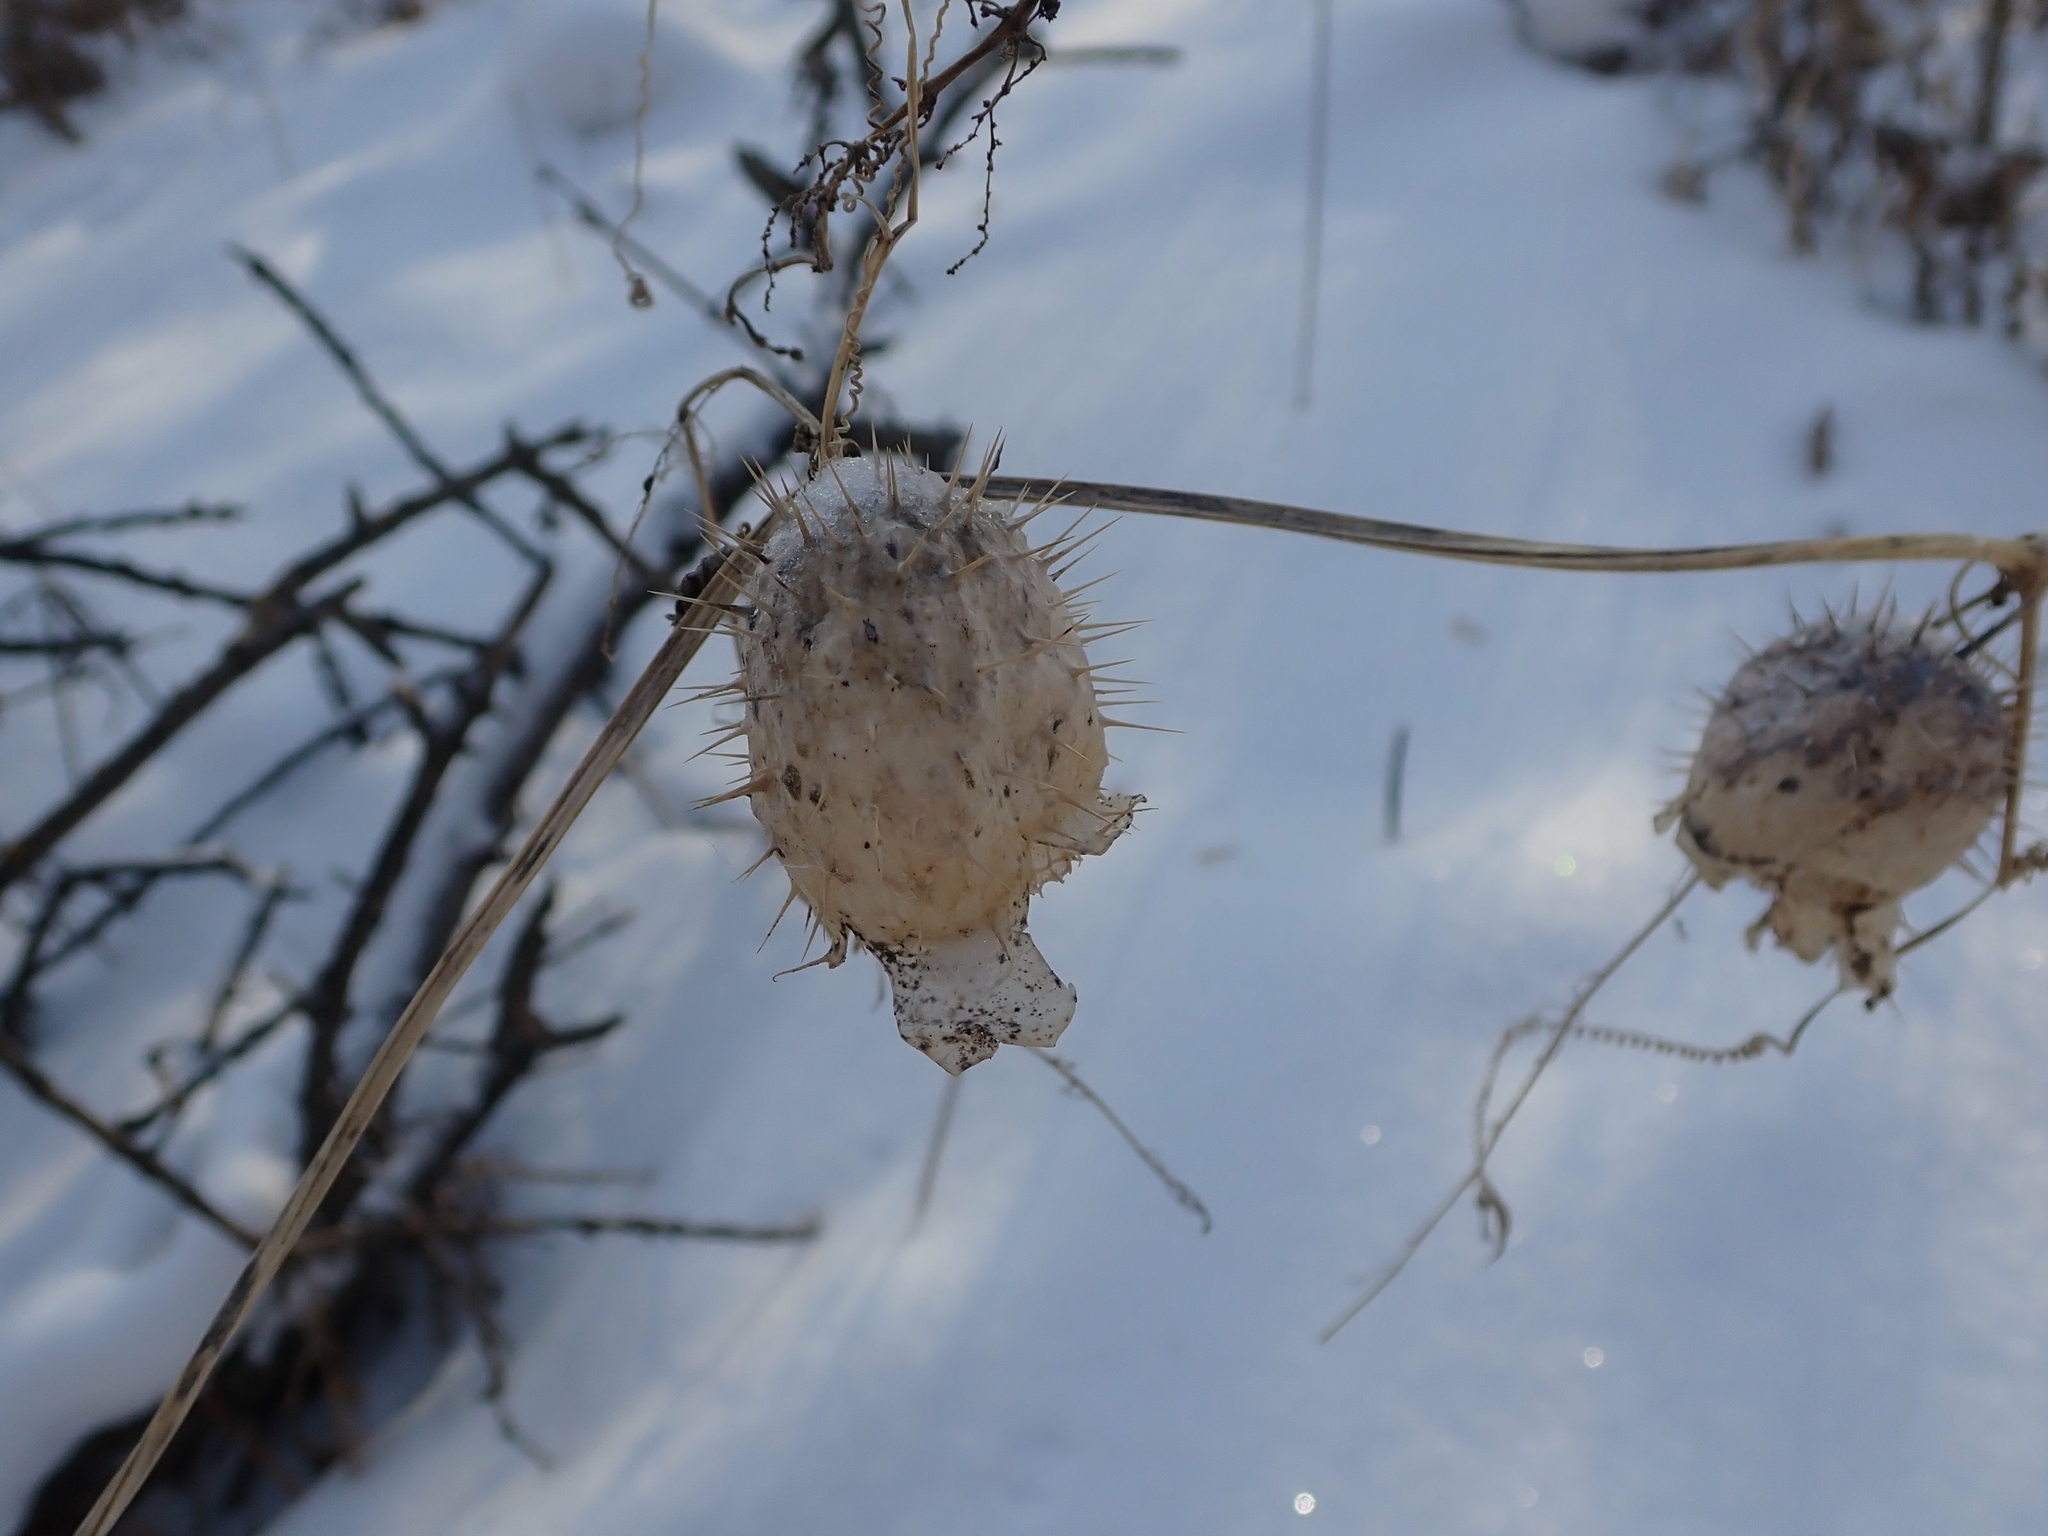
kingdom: Plantae
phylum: Tracheophyta
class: Magnoliopsida
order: Cucurbitales
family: Cucurbitaceae
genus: Echinocystis
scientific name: Echinocystis lobata
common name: Wild cucumber
